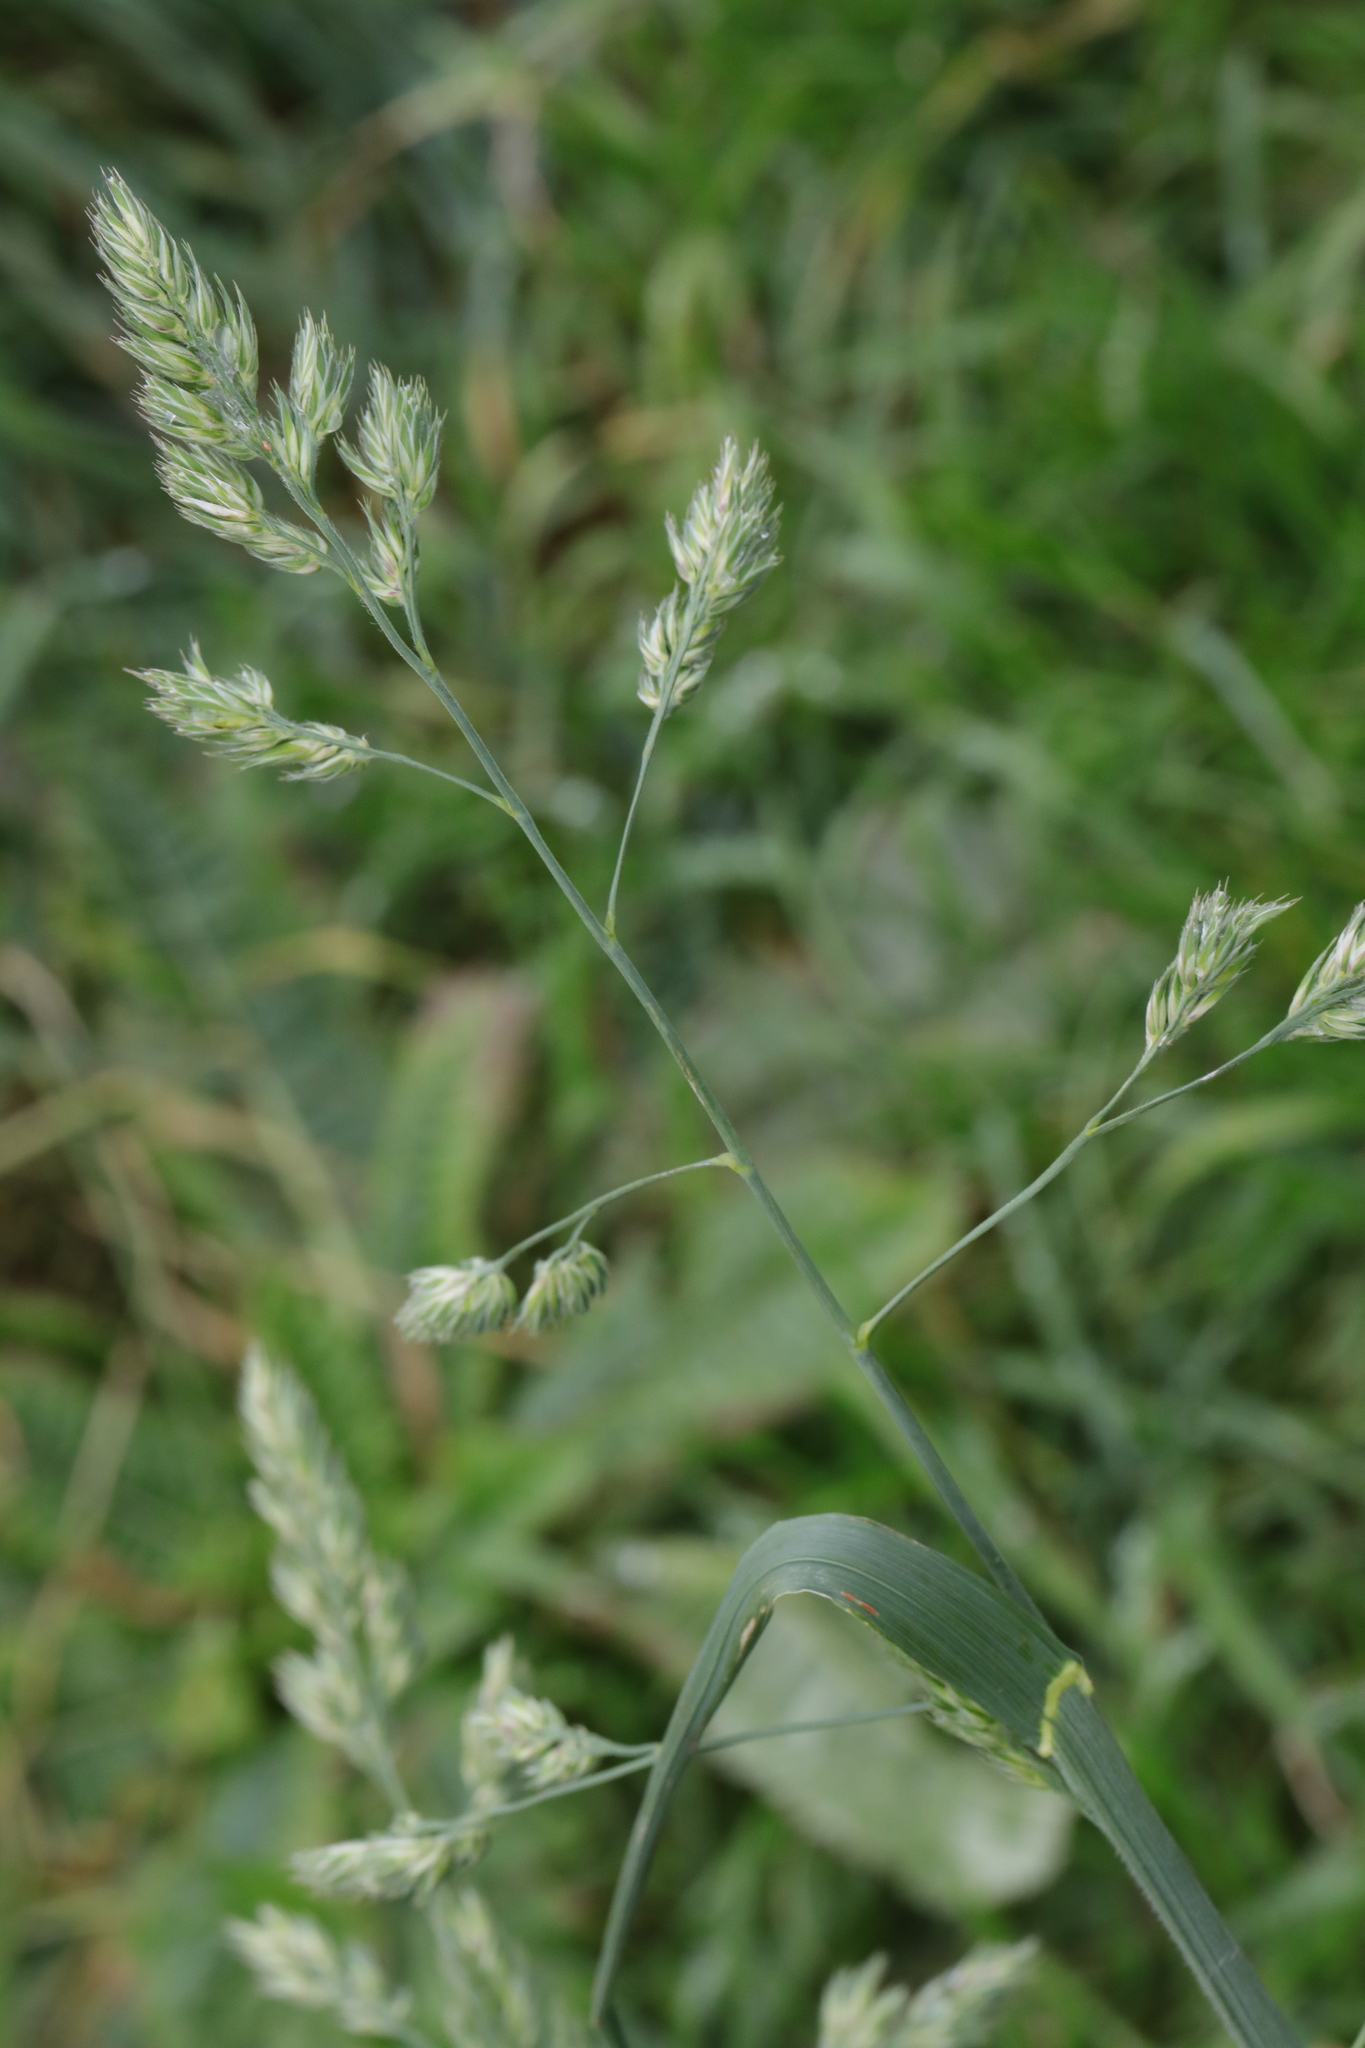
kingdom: Plantae
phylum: Tracheophyta
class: Liliopsida
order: Poales
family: Poaceae
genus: Dactylis
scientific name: Dactylis glomerata
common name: Orchardgrass
